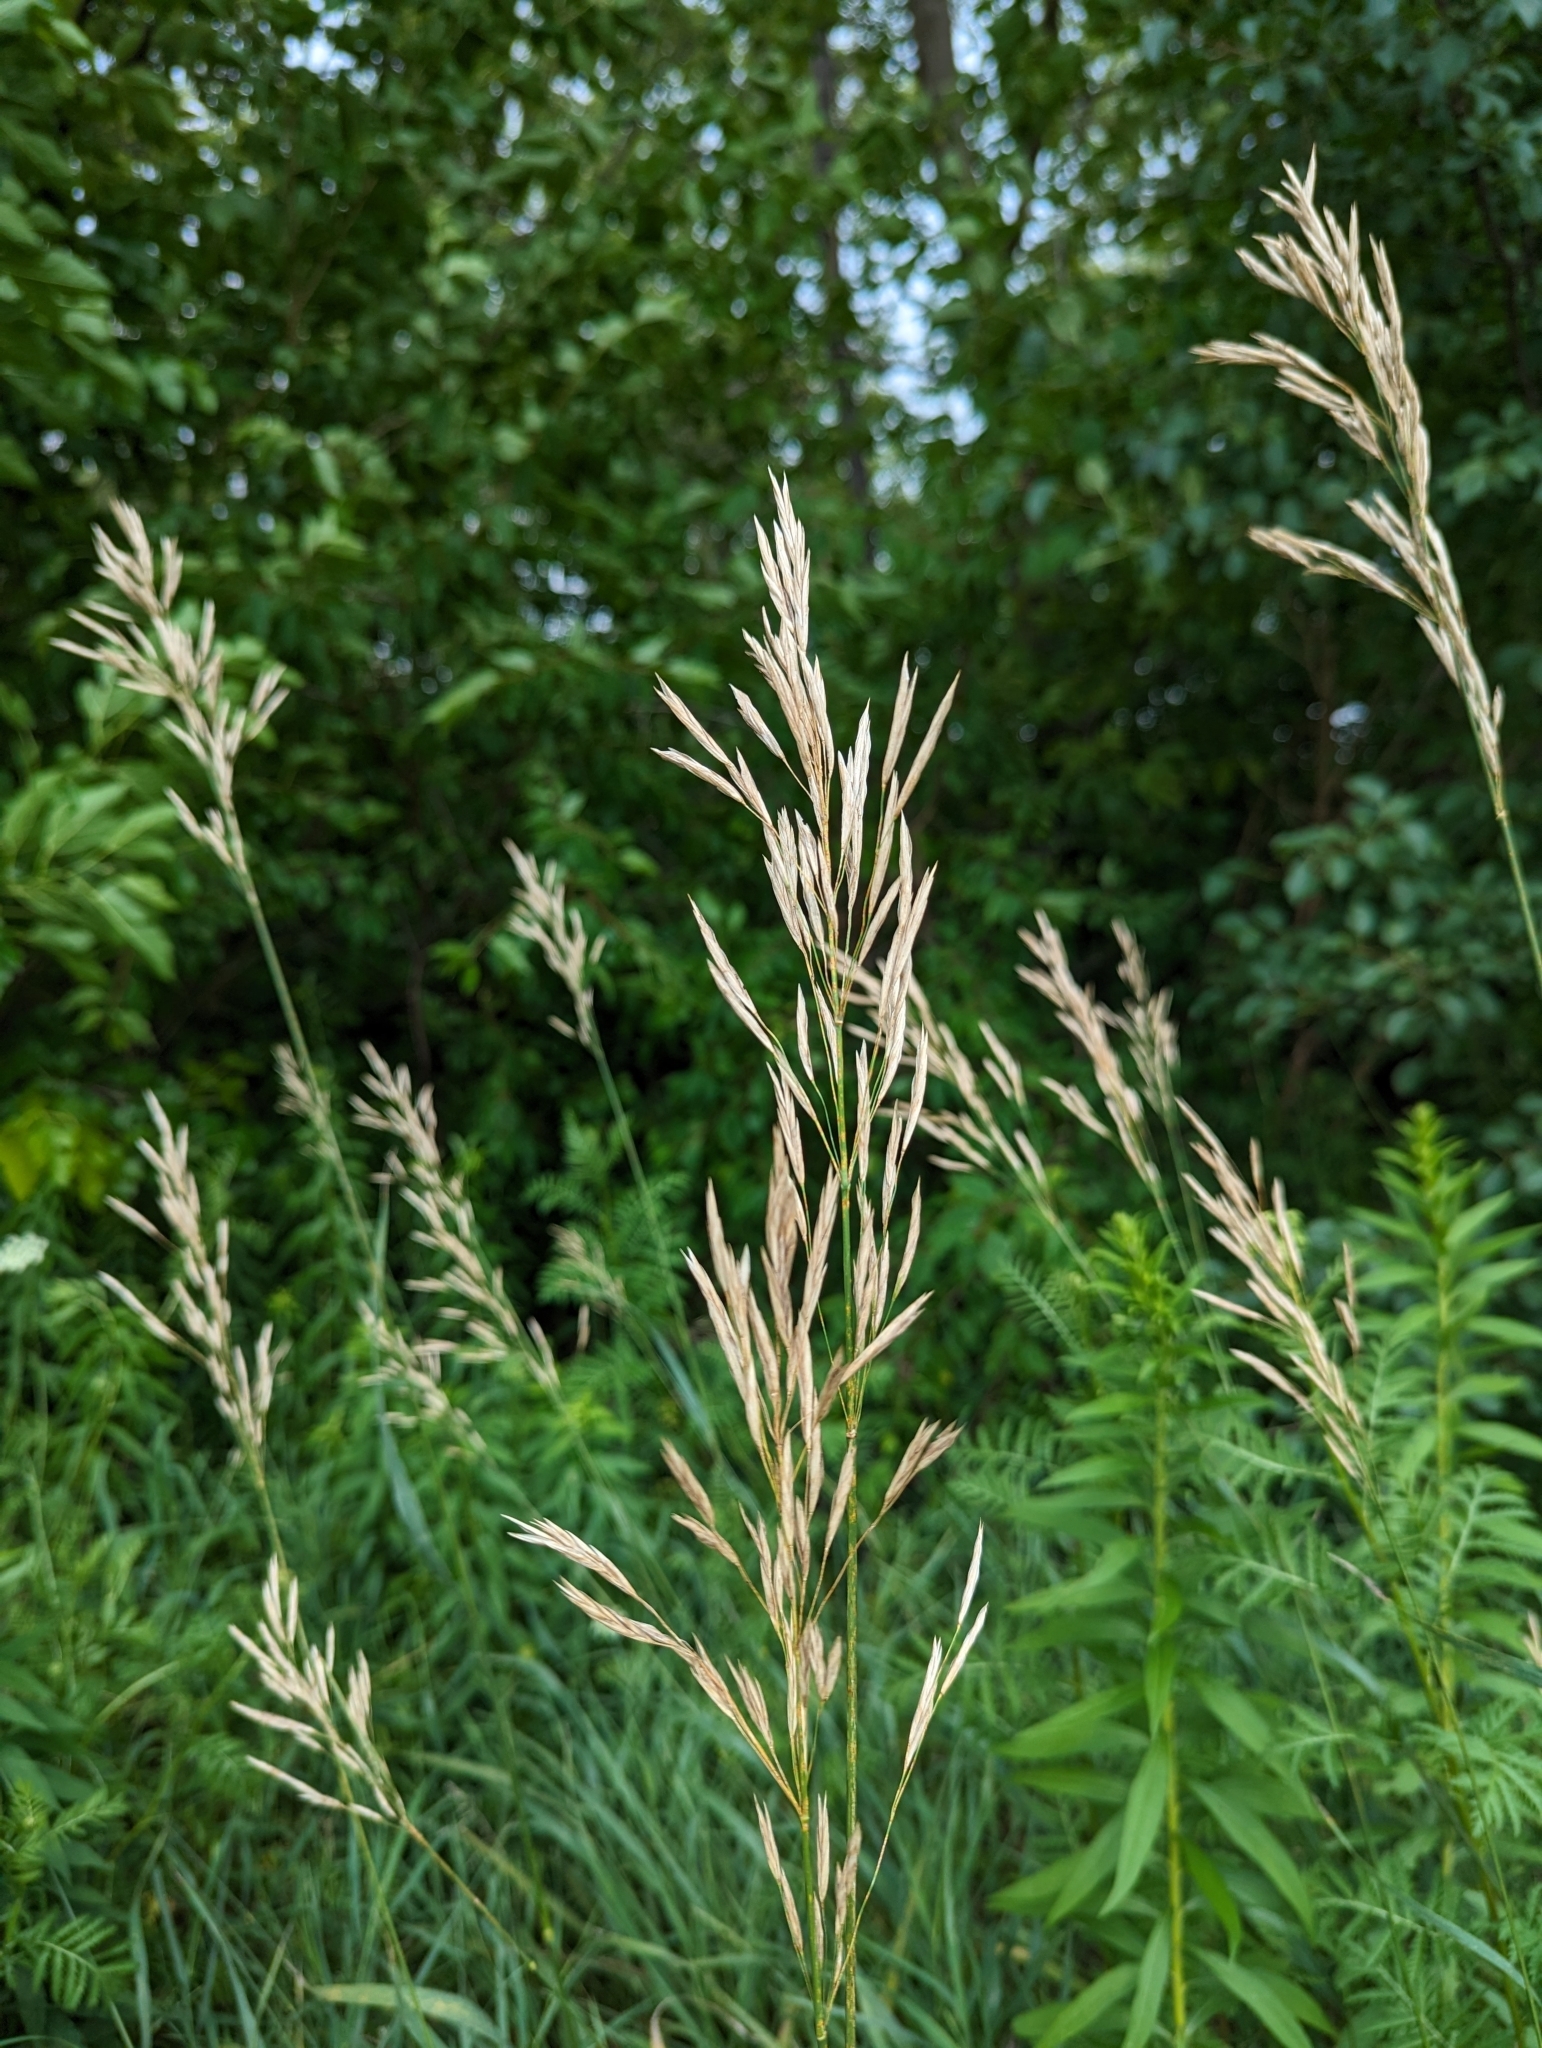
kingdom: Plantae
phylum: Tracheophyta
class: Liliopsida
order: Poales
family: Poaceae
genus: Bromus
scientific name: Bromus inermis
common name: Smooth brome
